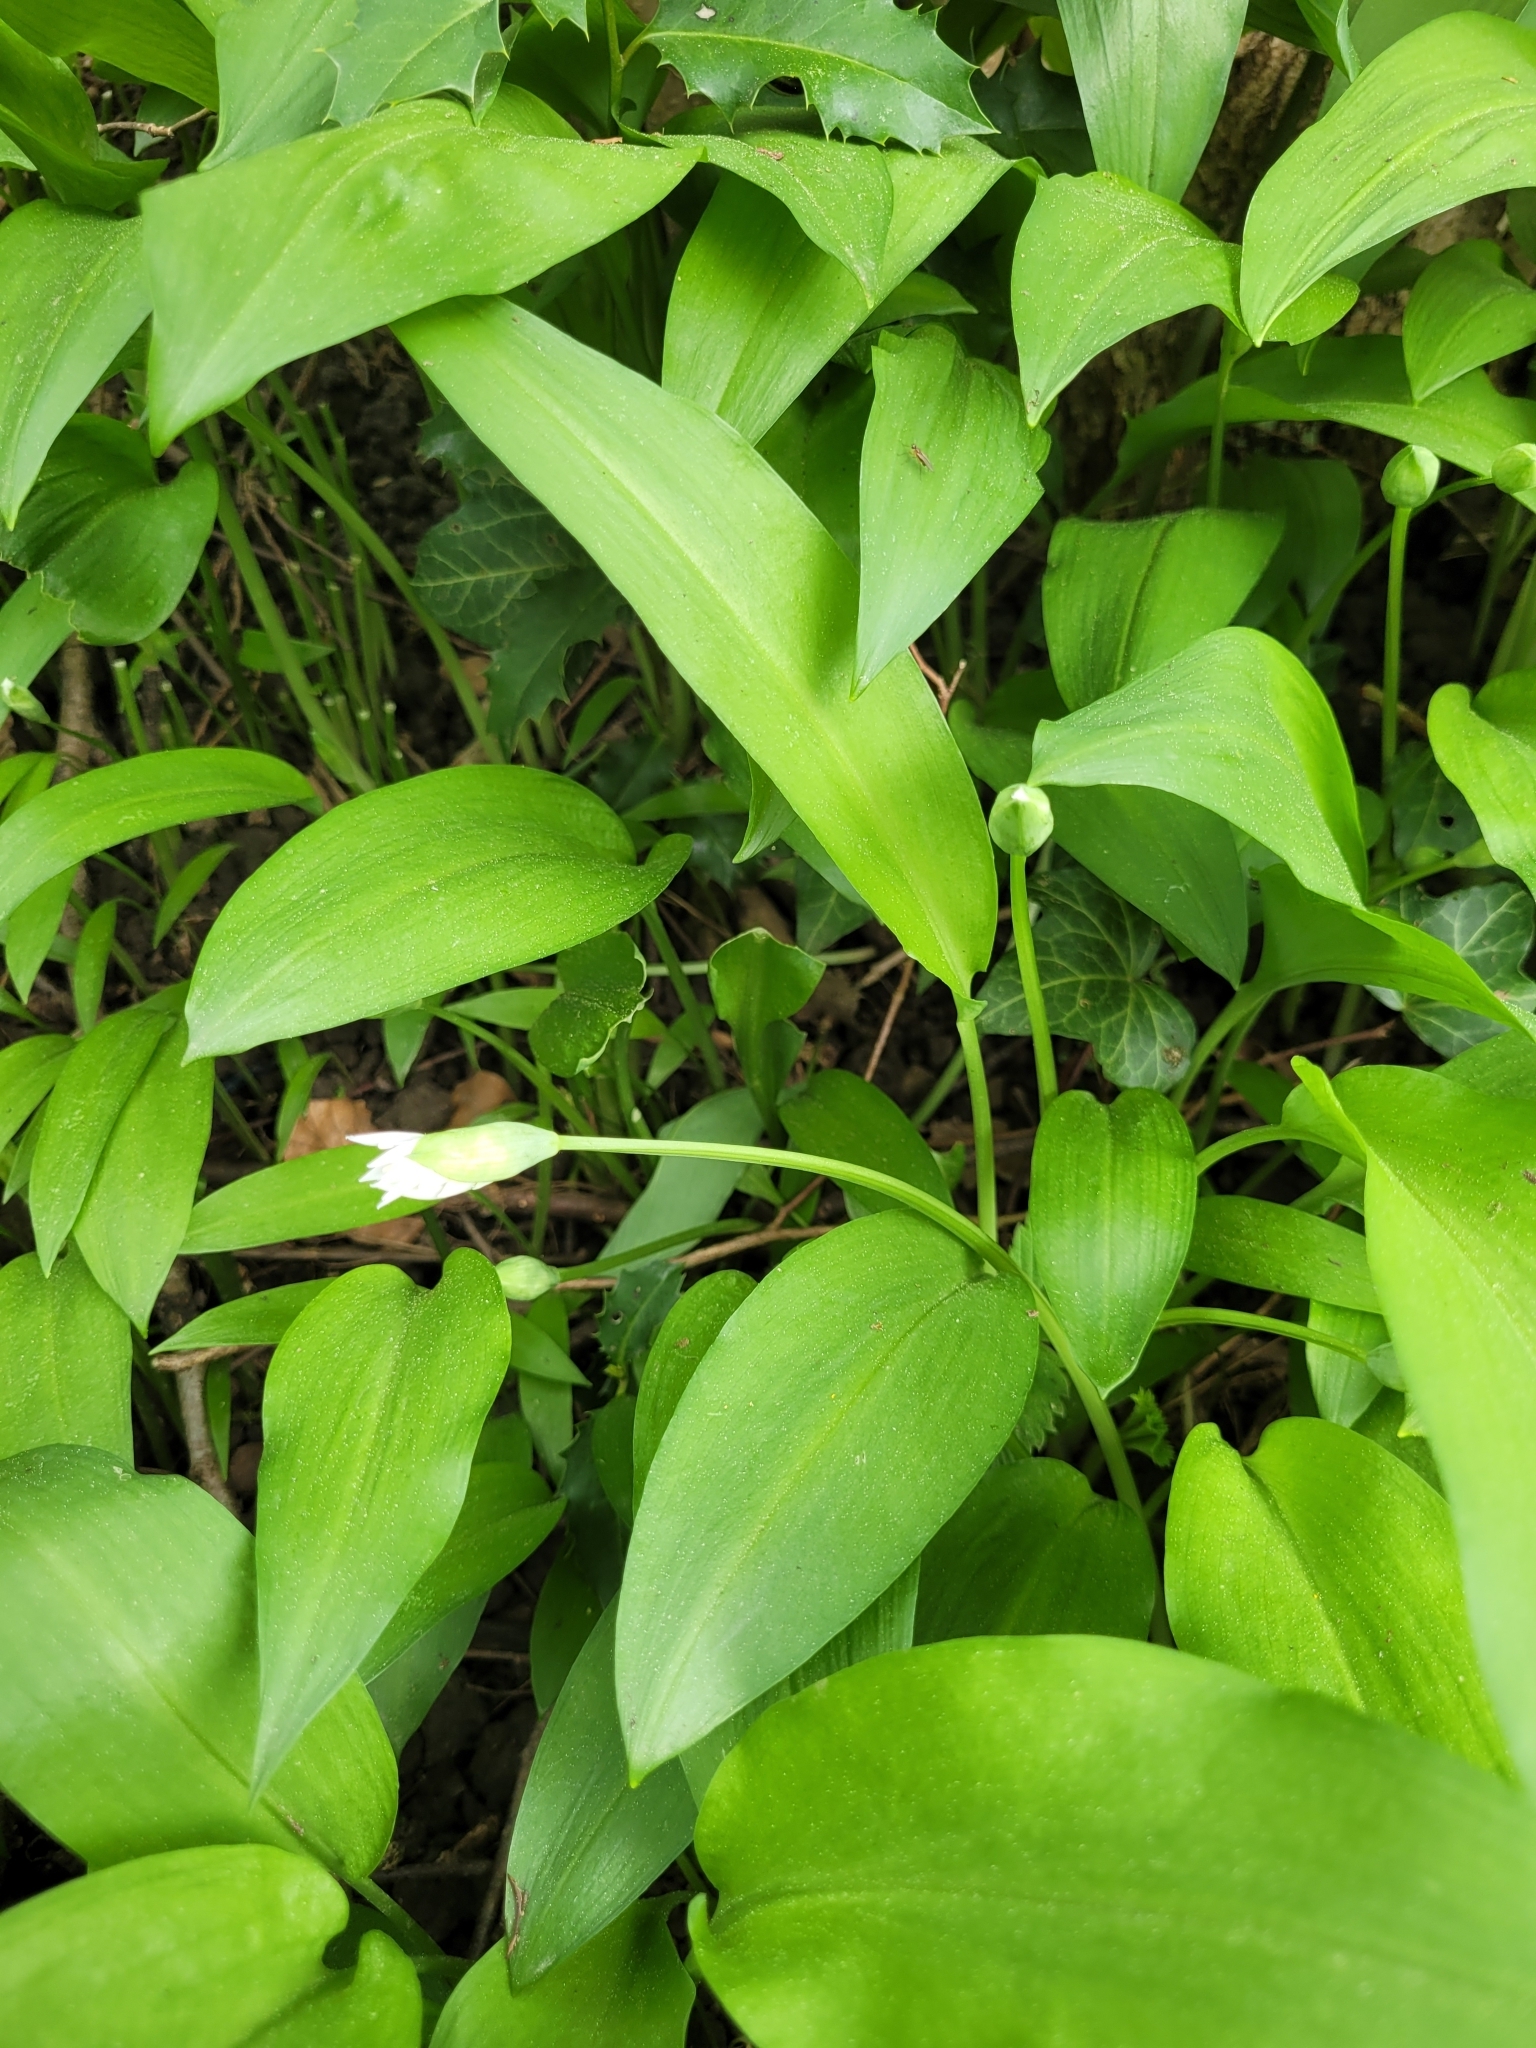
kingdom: Plantae
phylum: Tracheophyta
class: Liliopsida
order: Asparagales
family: Amaryllidaceae
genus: Allium
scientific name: Allium ursinum
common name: Ramsons
